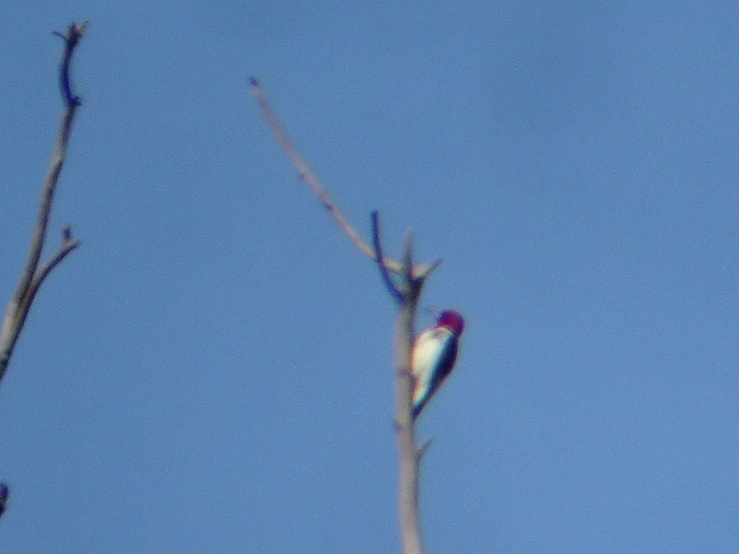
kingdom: Animalia
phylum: Chordata
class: Aves
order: Piciformes
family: Picidae
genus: Melanerpes
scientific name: Melanerpes erythrocephalus
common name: Red-headed woodpecker
